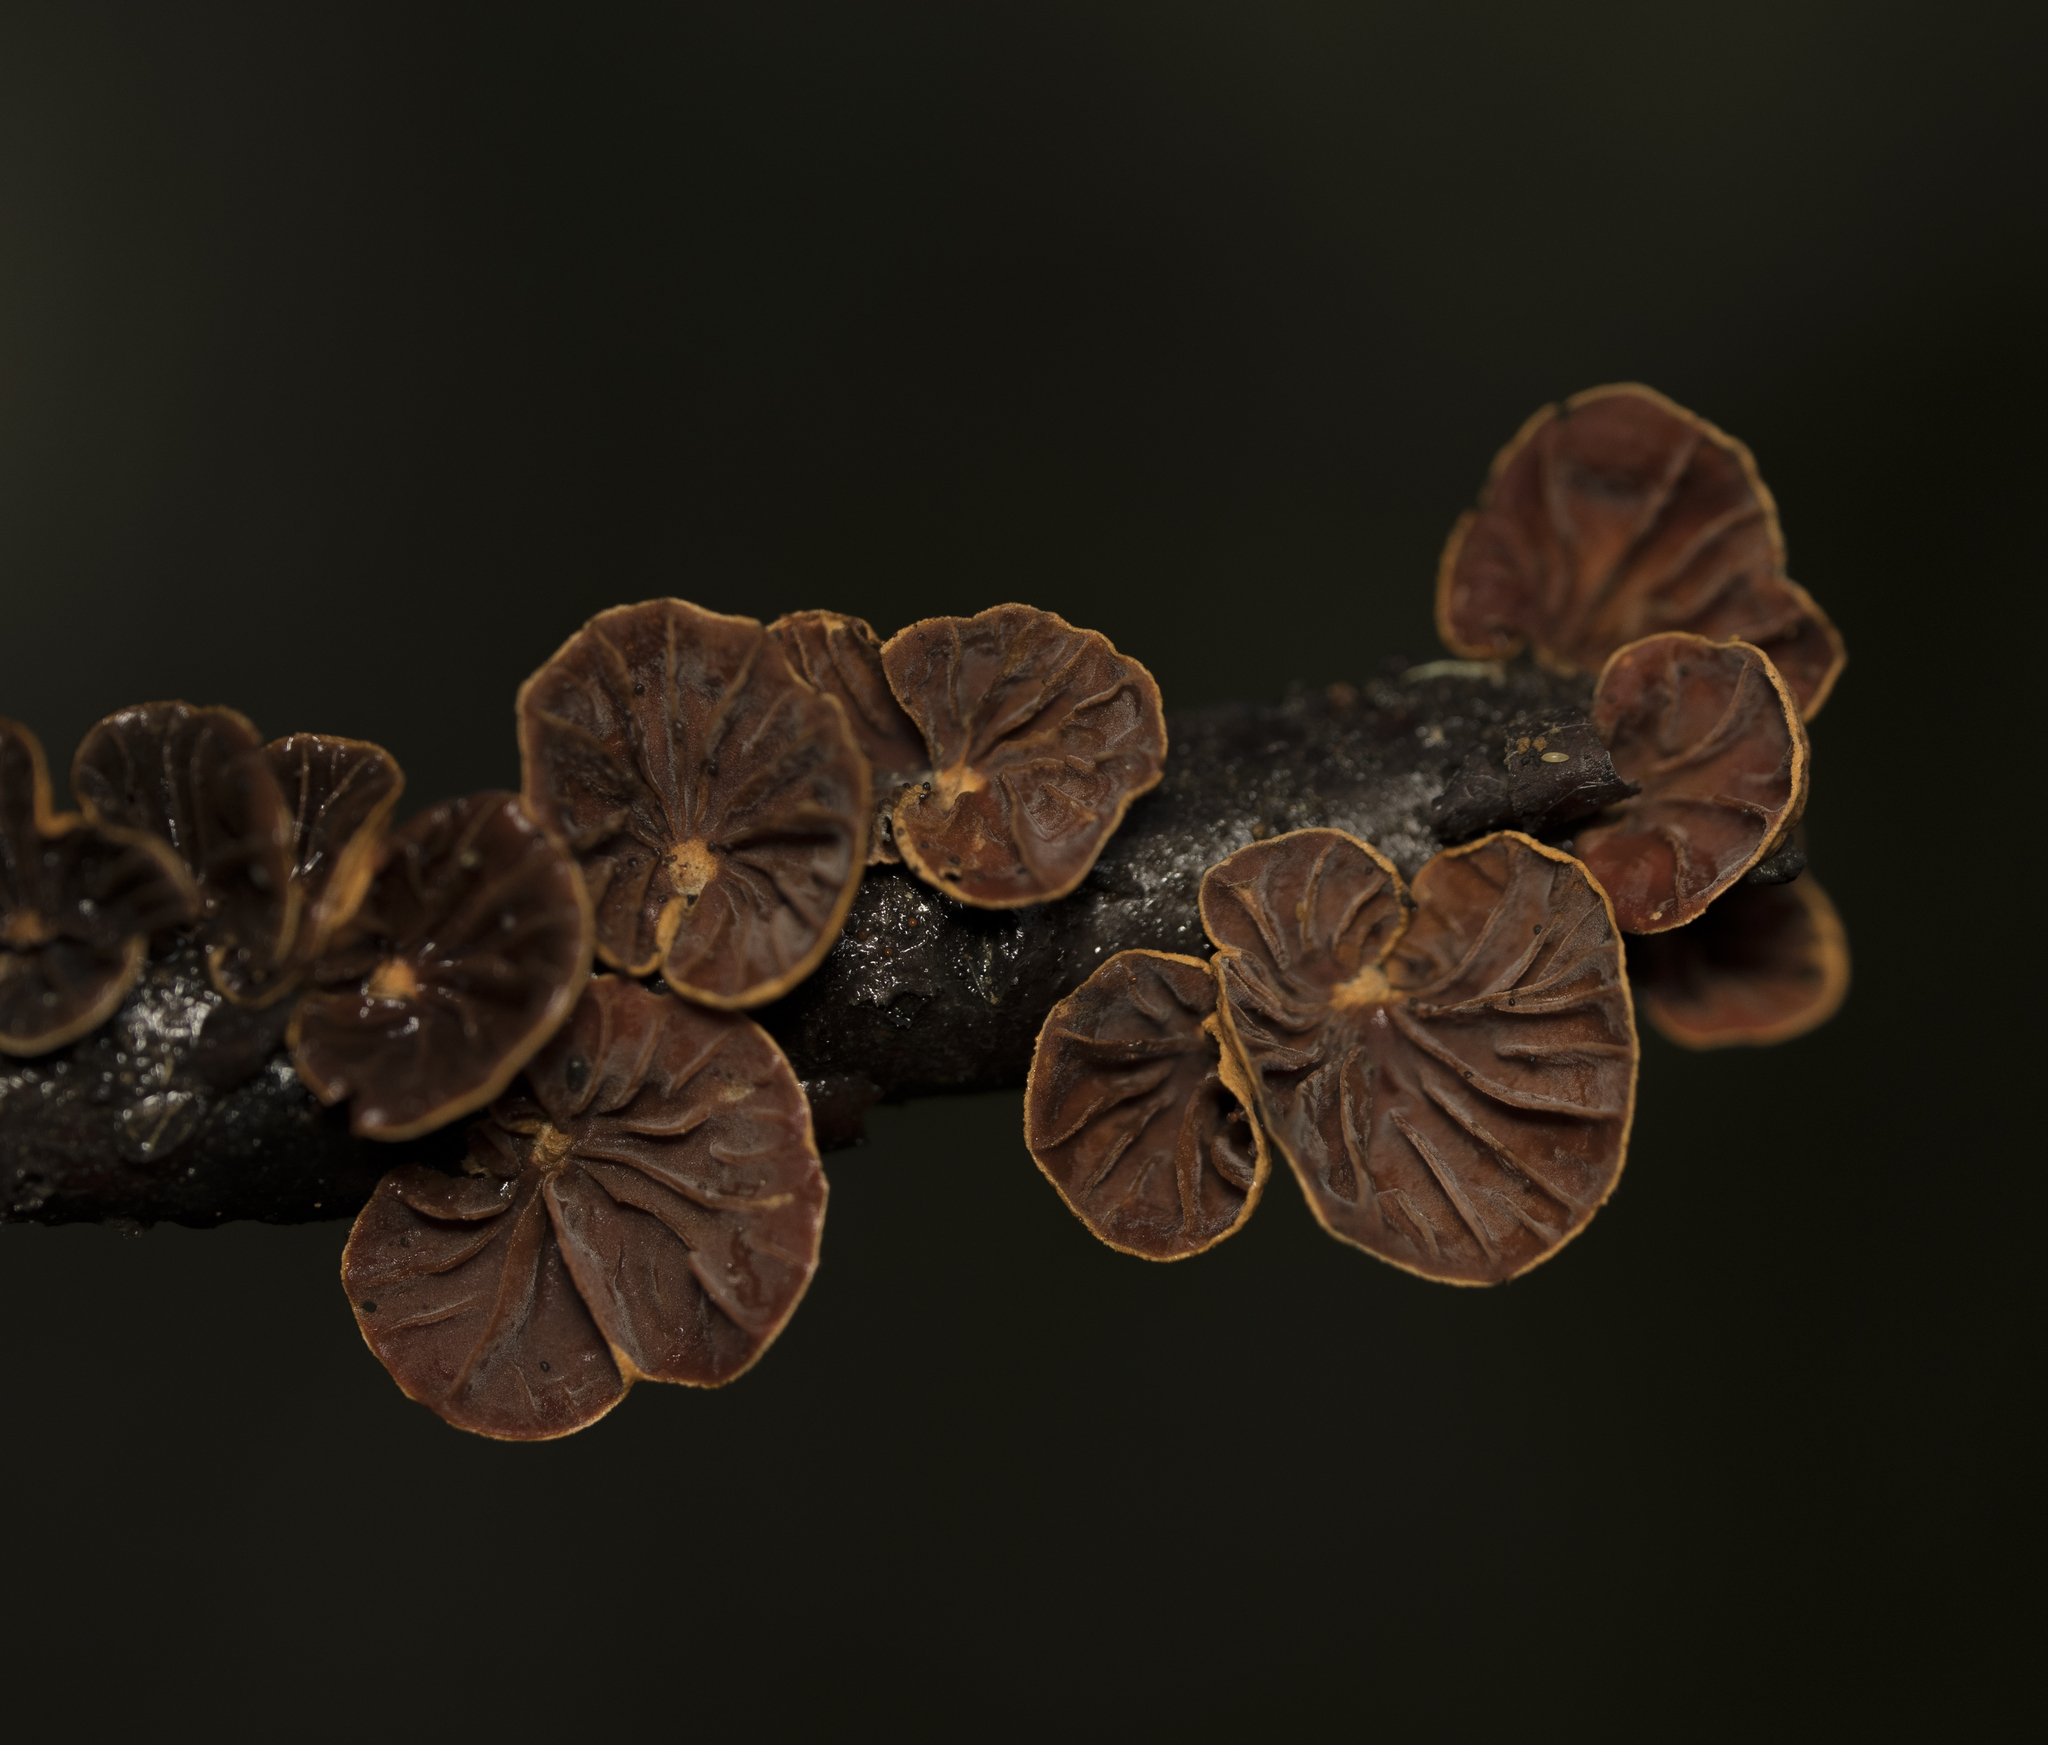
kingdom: Fungi
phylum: Basidiomycota
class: Agaricomycetes
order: Agaricales
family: Omphalotaceae
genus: Anthracophyllum
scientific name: Anthracophyllum discolor
